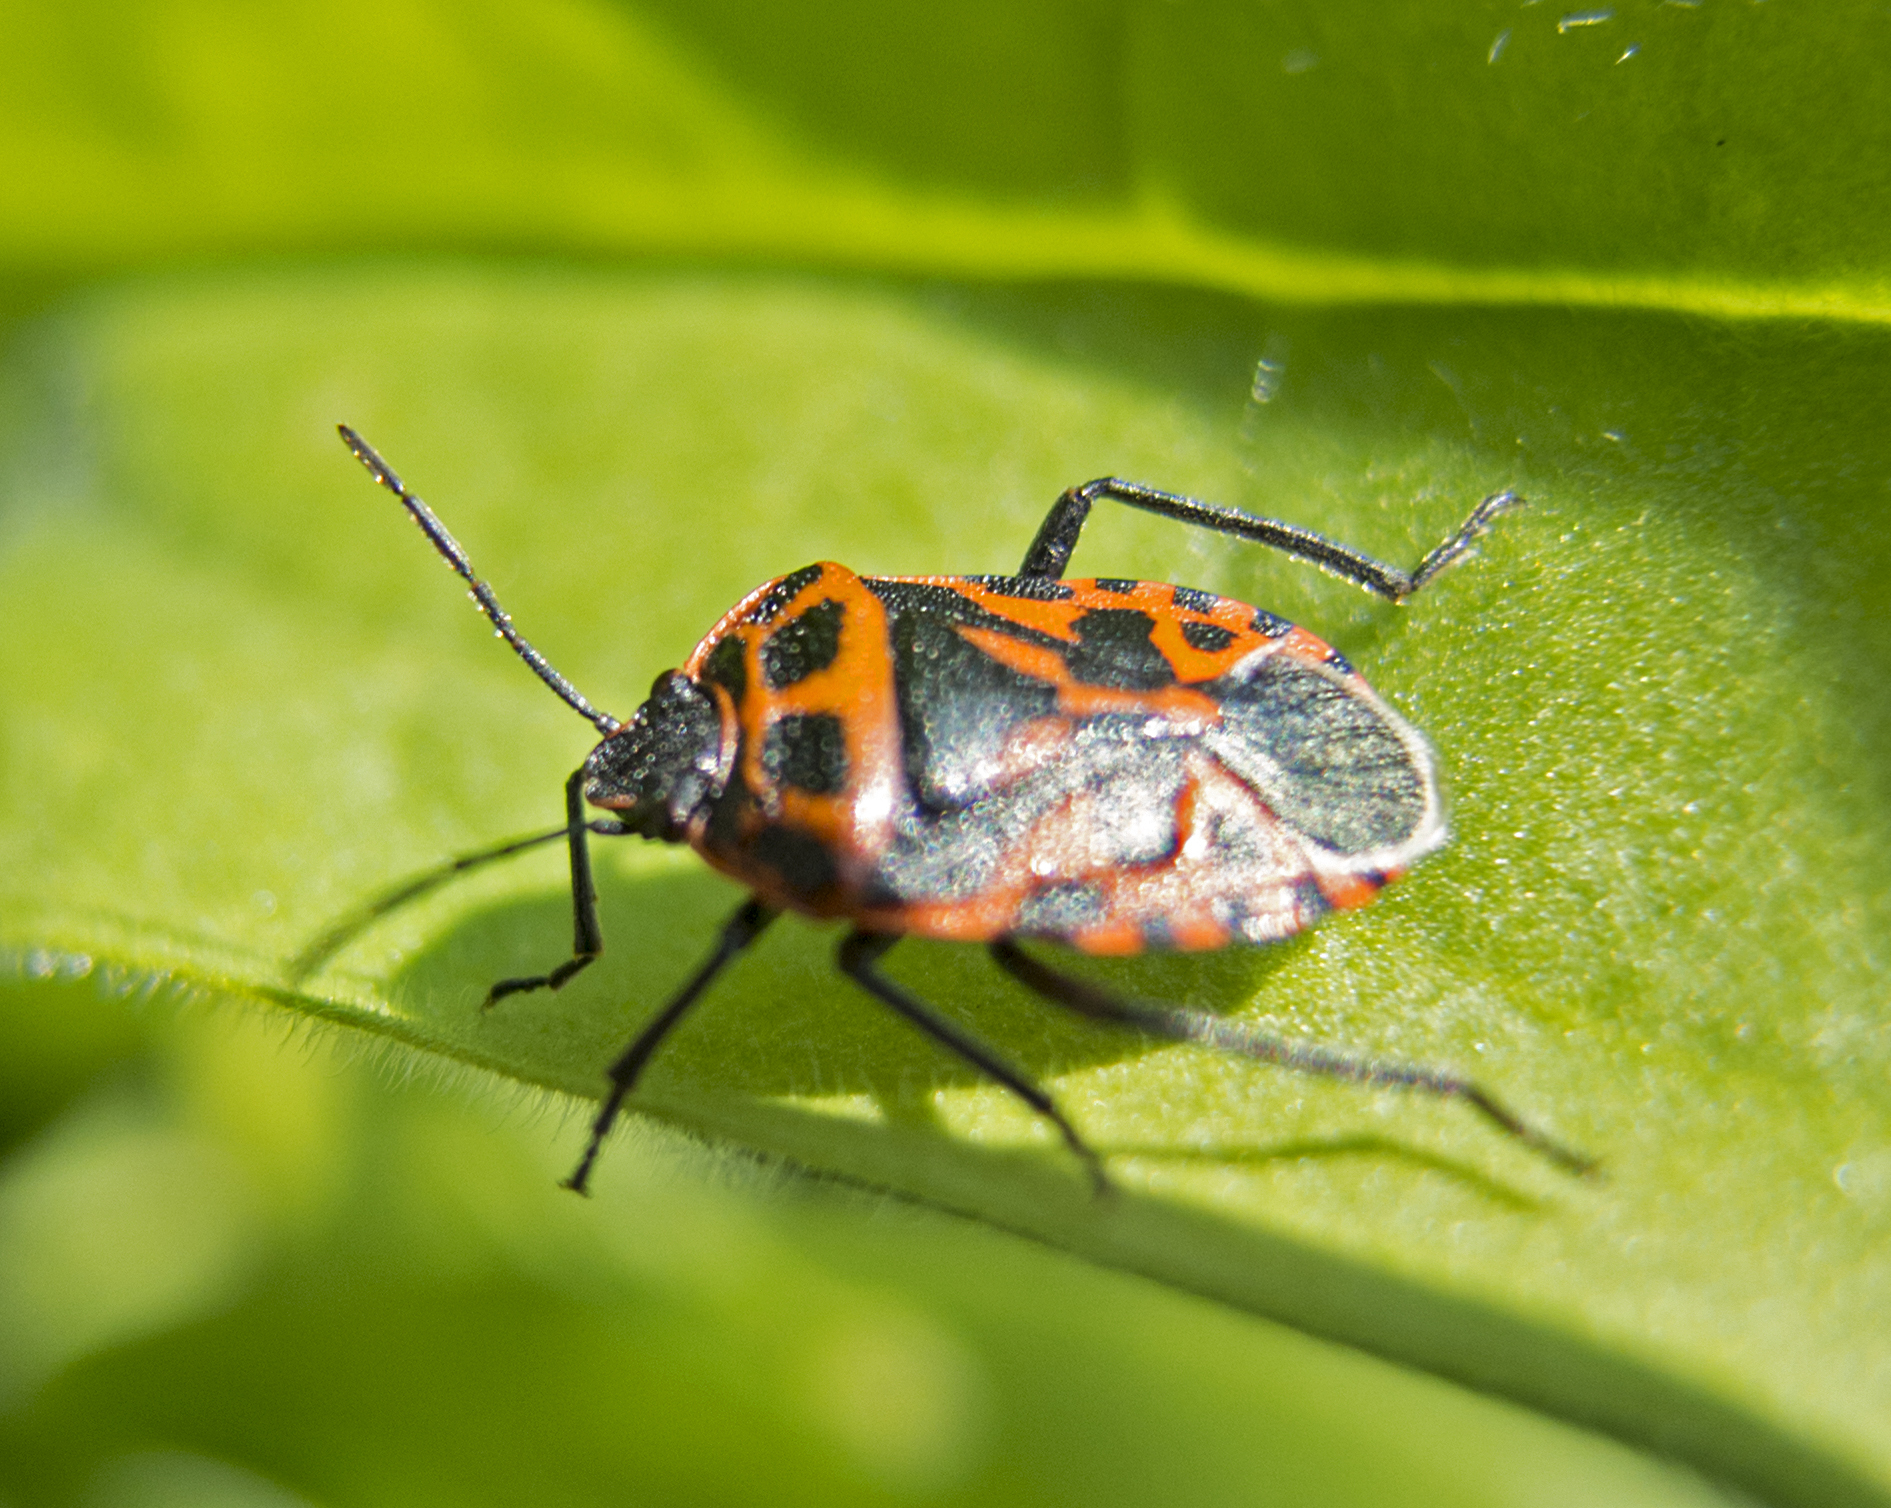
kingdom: Animalia
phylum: Arthropoda
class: Insecta
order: Hemiptera
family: Pentatomidae
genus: Eurydema
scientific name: Eurydema ventralis
